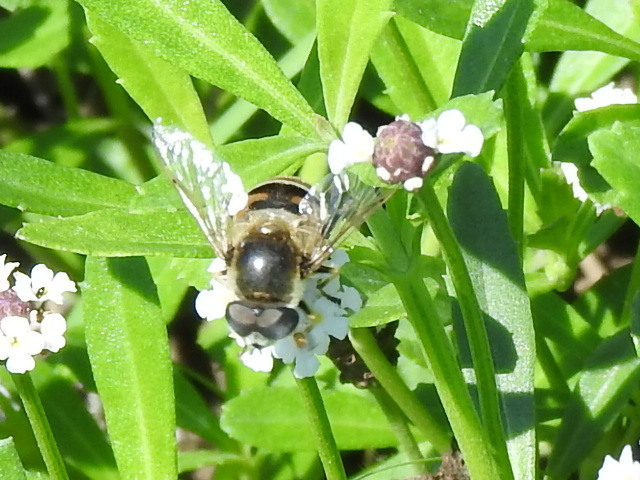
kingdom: Animalia
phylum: Arthropoda
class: Insecta
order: Diptera
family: Syrphidae
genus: Eristalis
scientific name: Eristalis stipator
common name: Yellow-shouldered drone fly
